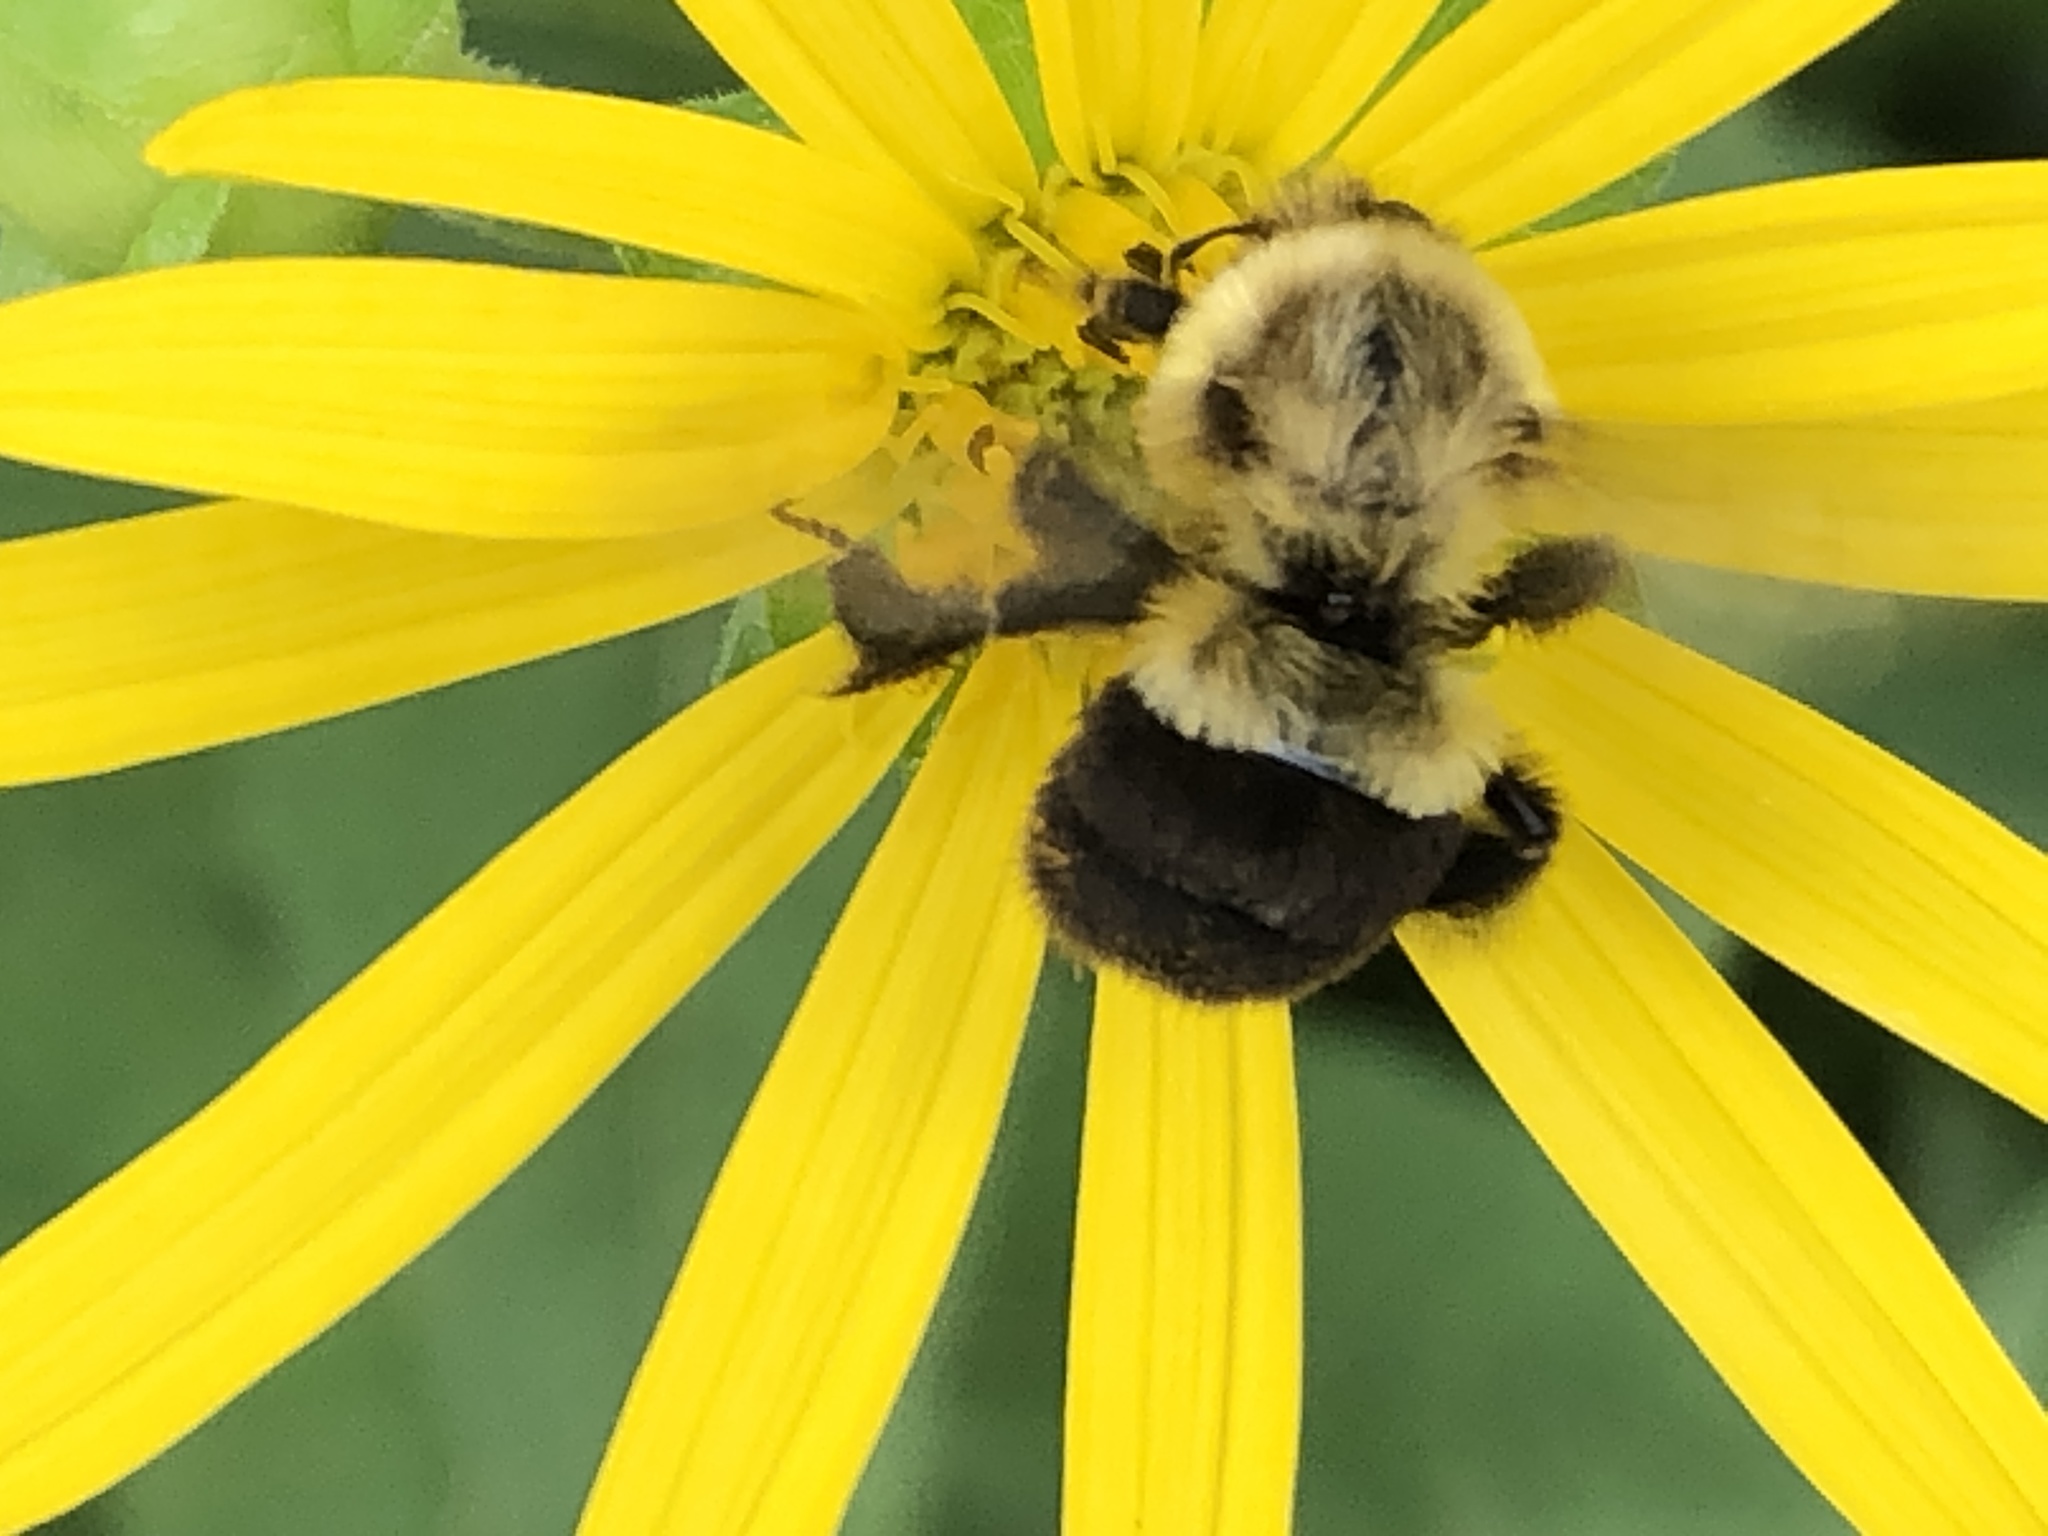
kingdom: Animalia
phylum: Arthropoda
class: Insecta
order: Hymenoptera
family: Apidae
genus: Bombus
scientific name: Bombus impatiens
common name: Common eastern bumble bee
